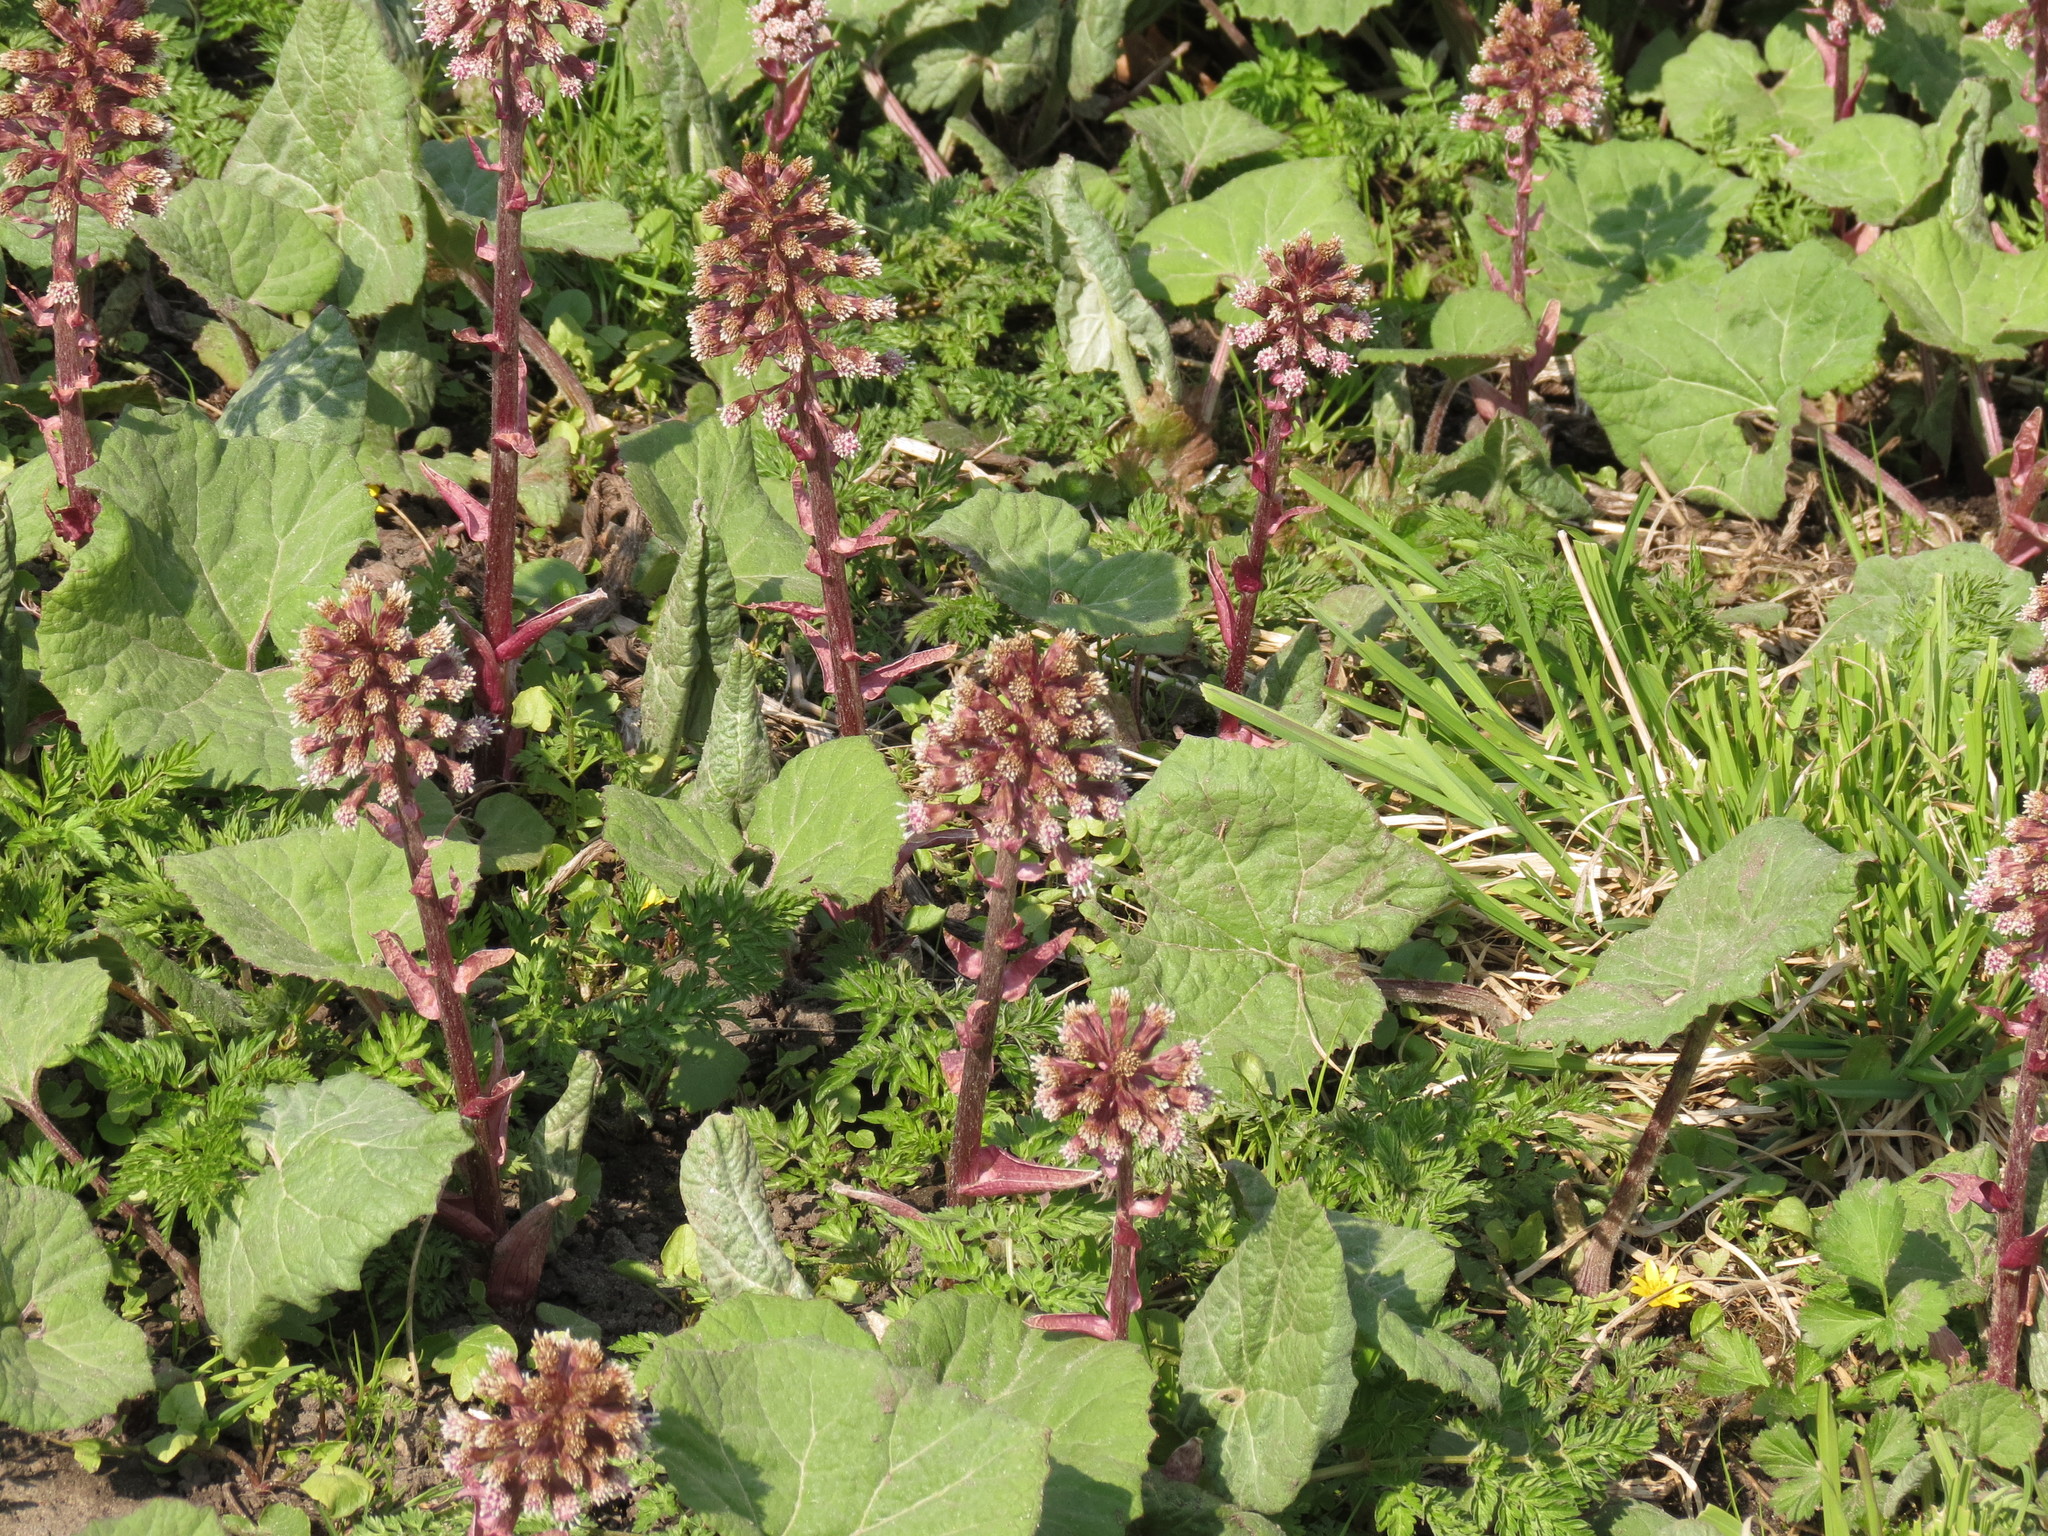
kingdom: Plantae
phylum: Tracheophyta
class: Magnoliopsida
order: Asterales
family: Asteraceae
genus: Petasites
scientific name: Petasites hybridus
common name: Butterbur
